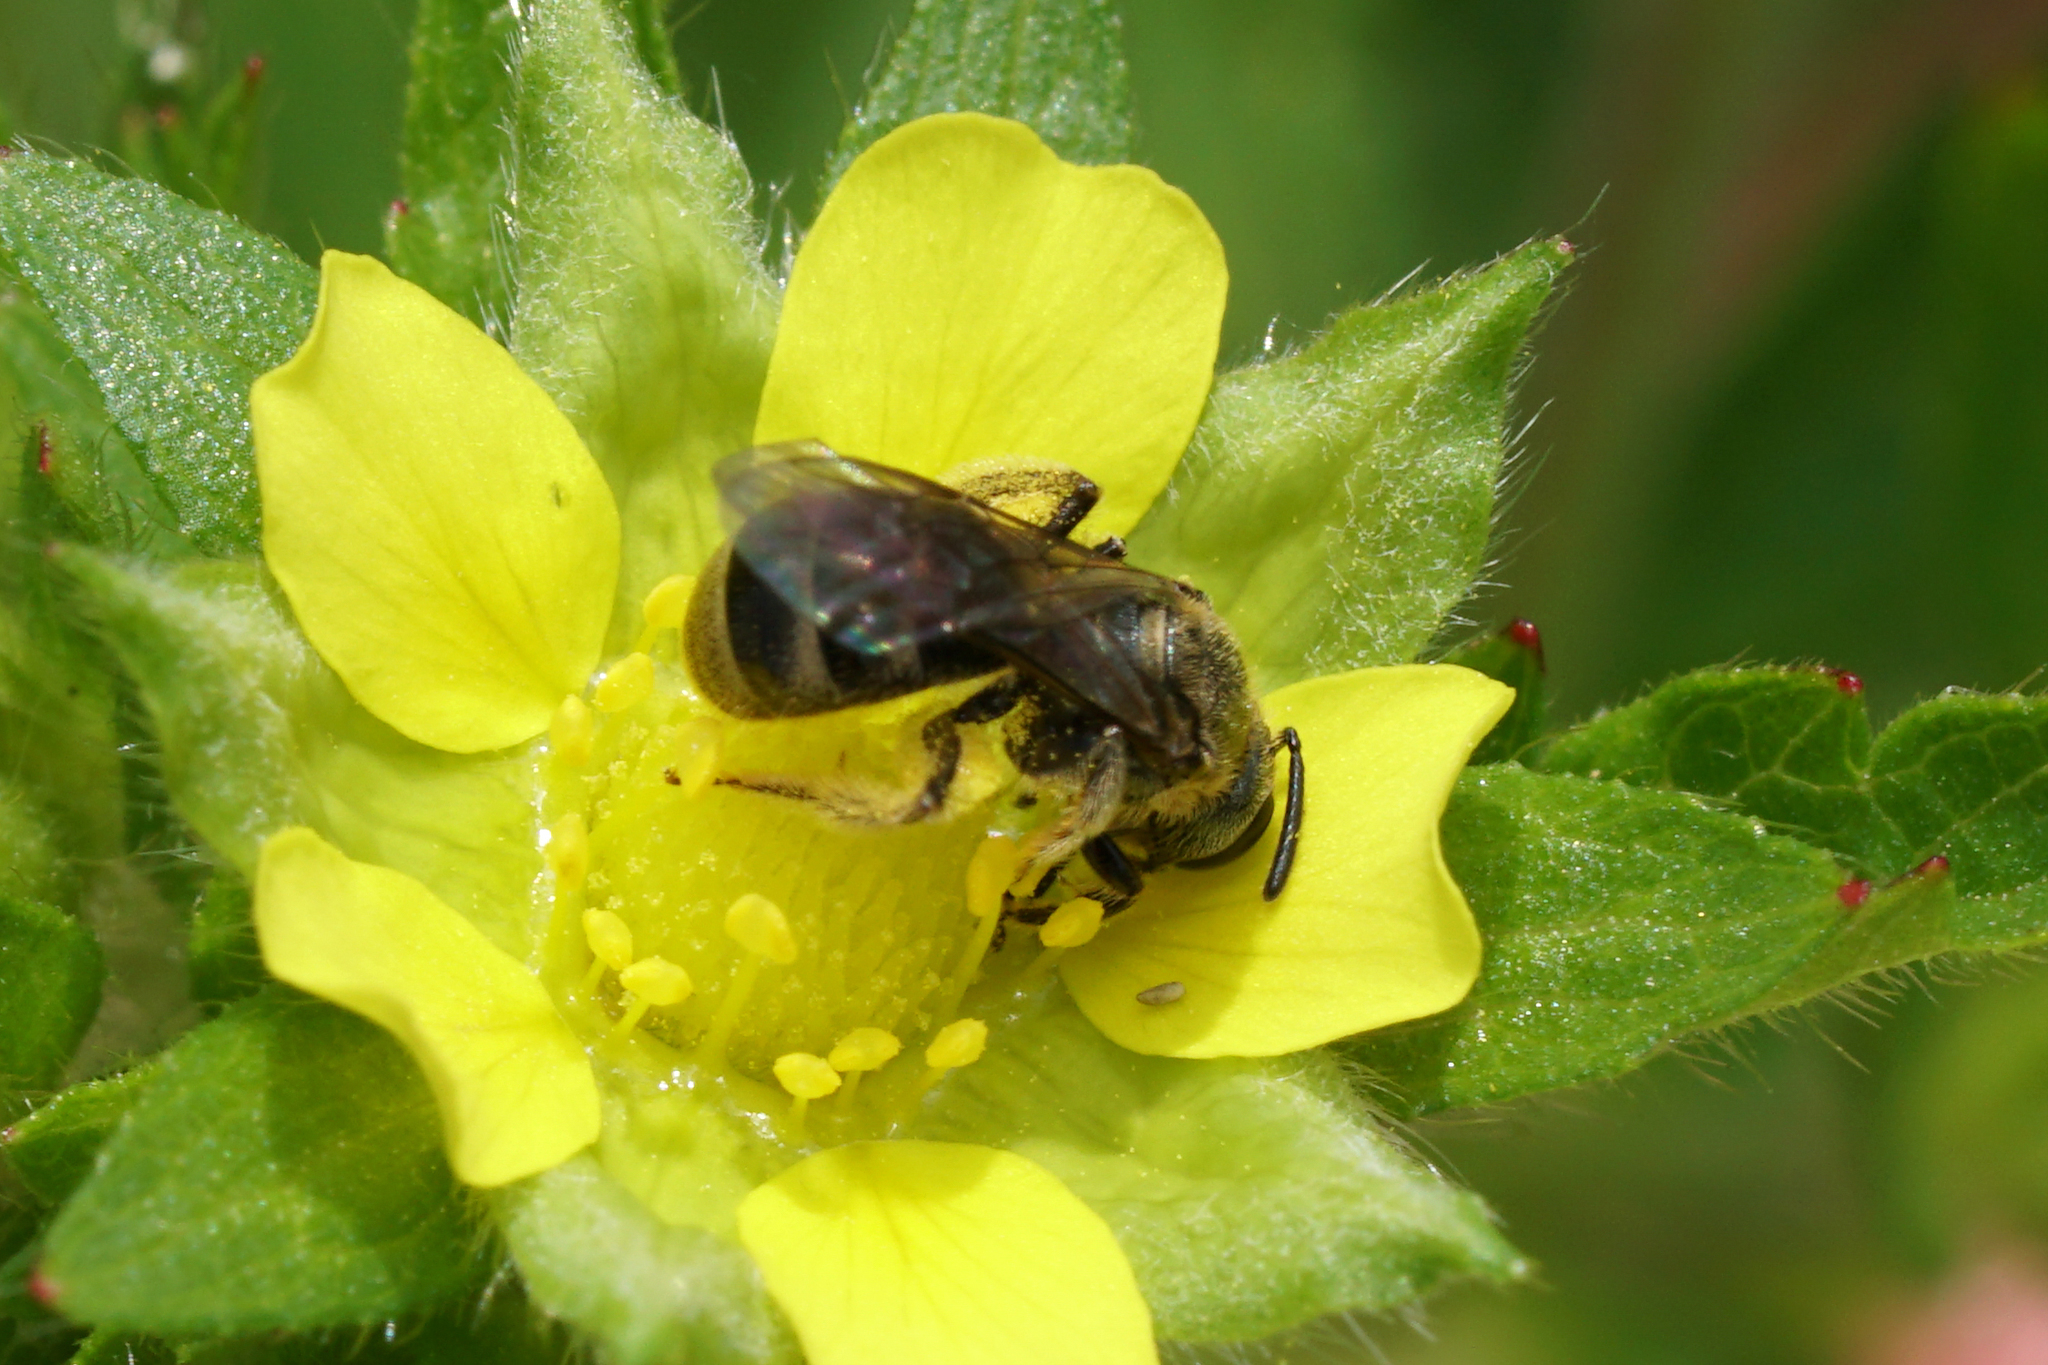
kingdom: Animalia
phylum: Arthropoda
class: Insecta
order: Hymenoptera
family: Halictidae
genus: Dialictus
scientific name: Dialictus
